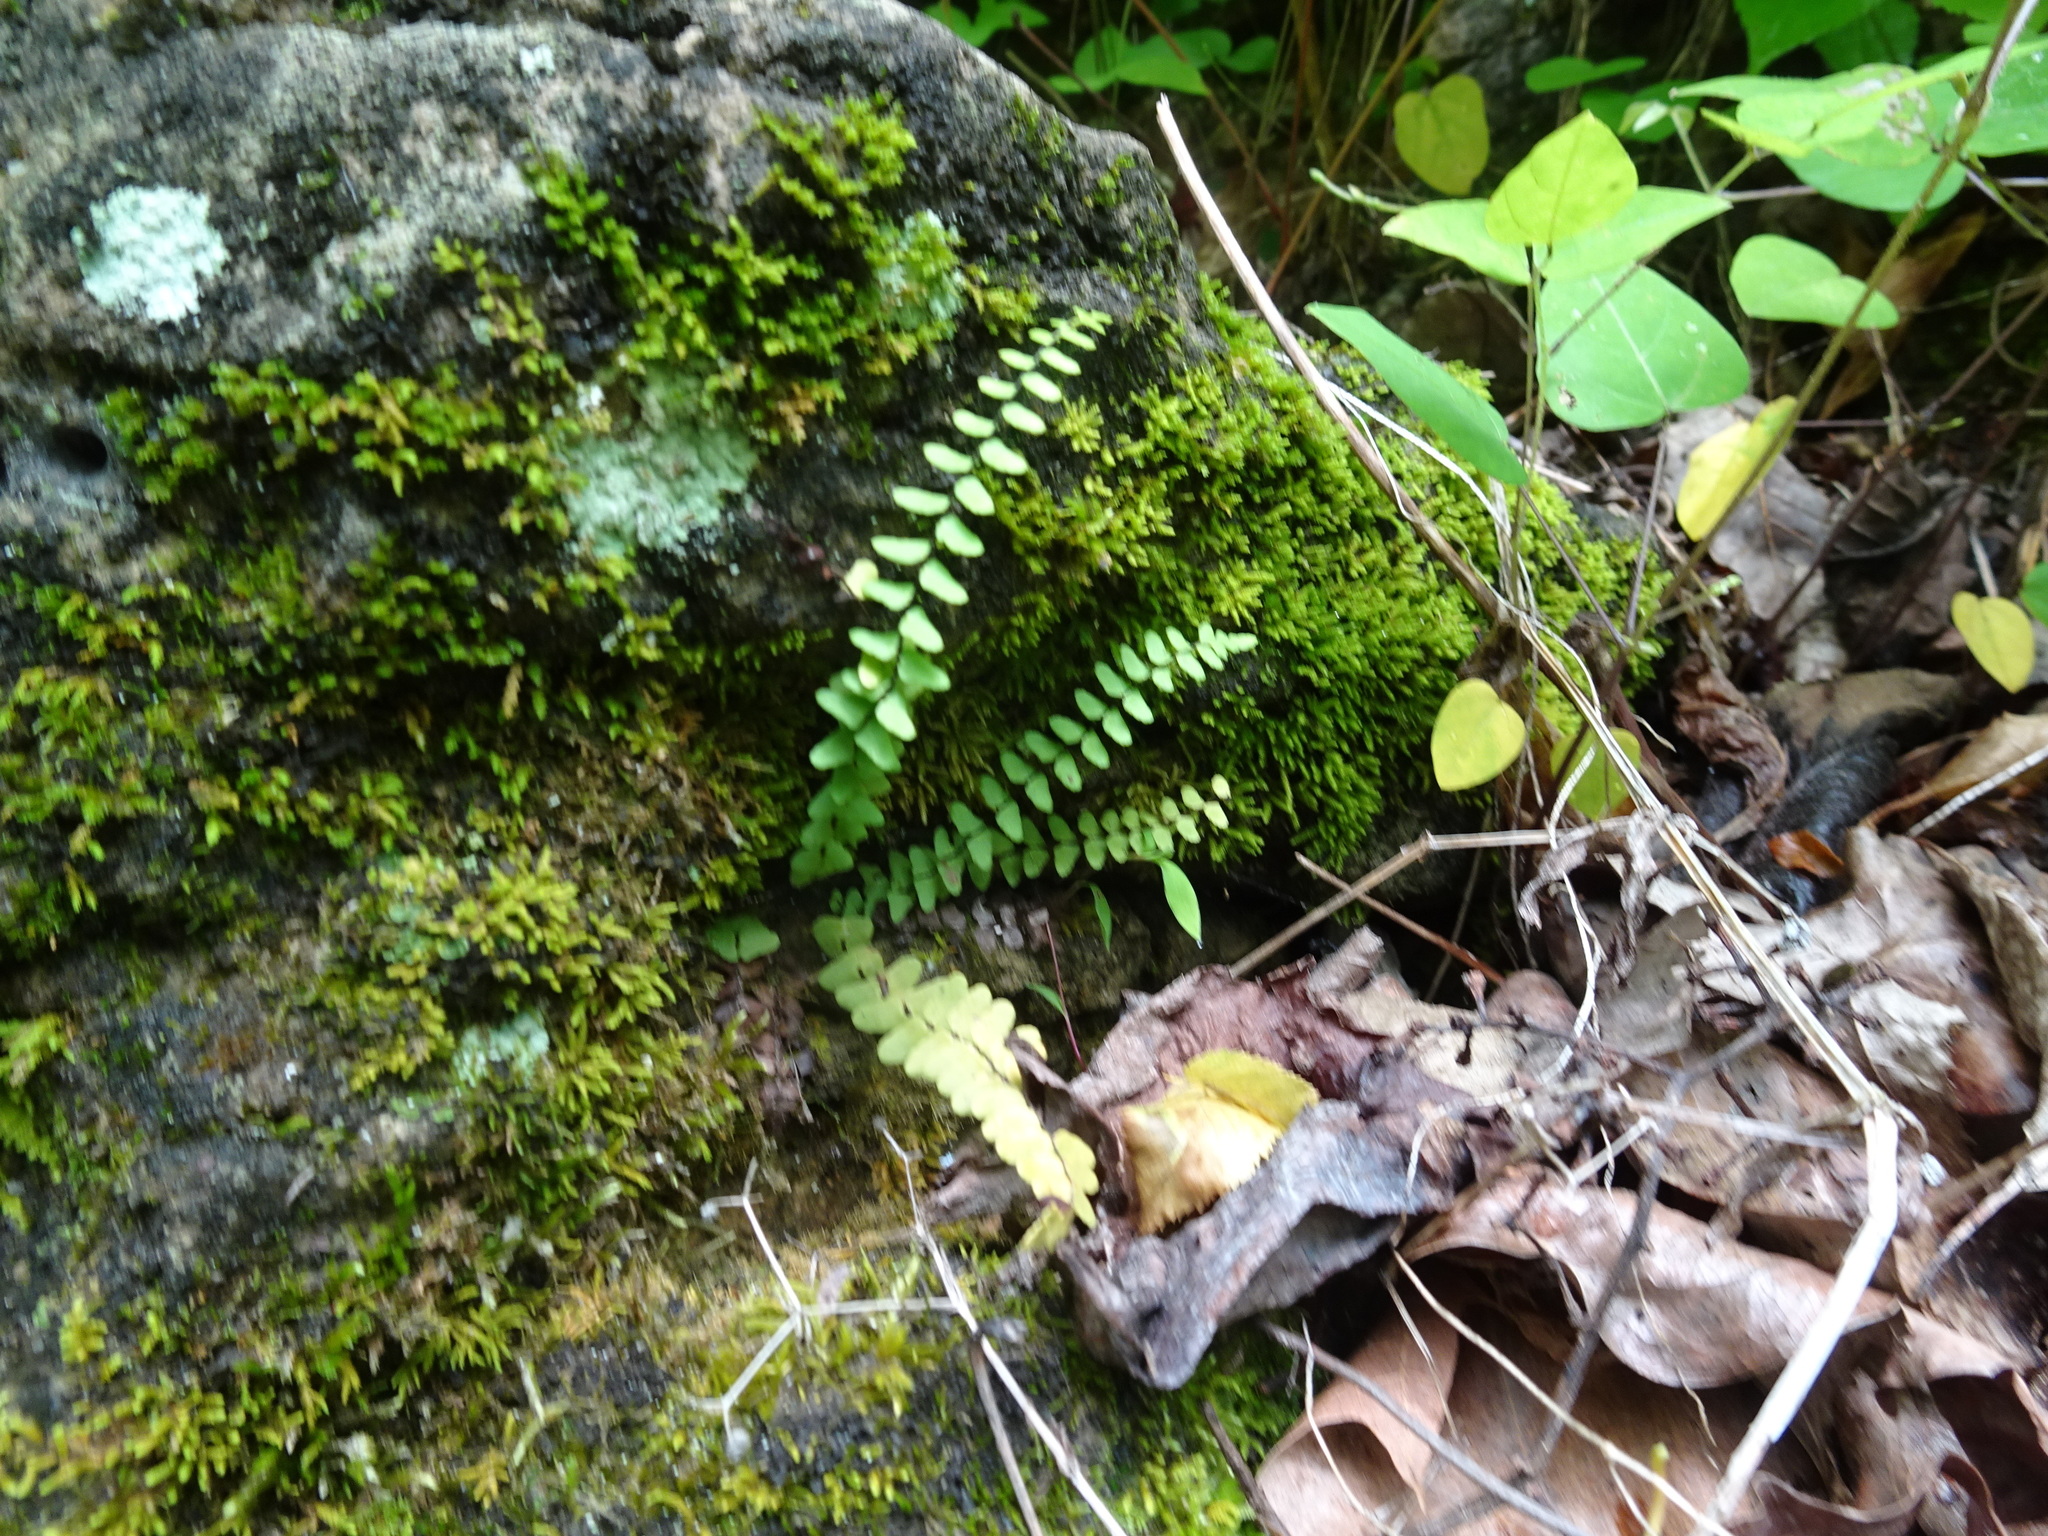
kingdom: Plantae
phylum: Tracheophyta
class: Polypodiopsida
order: Polypodiales
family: Aspleniaceae
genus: Asplenium
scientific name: Asplenium resiliens
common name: Blackstem spleenwort
